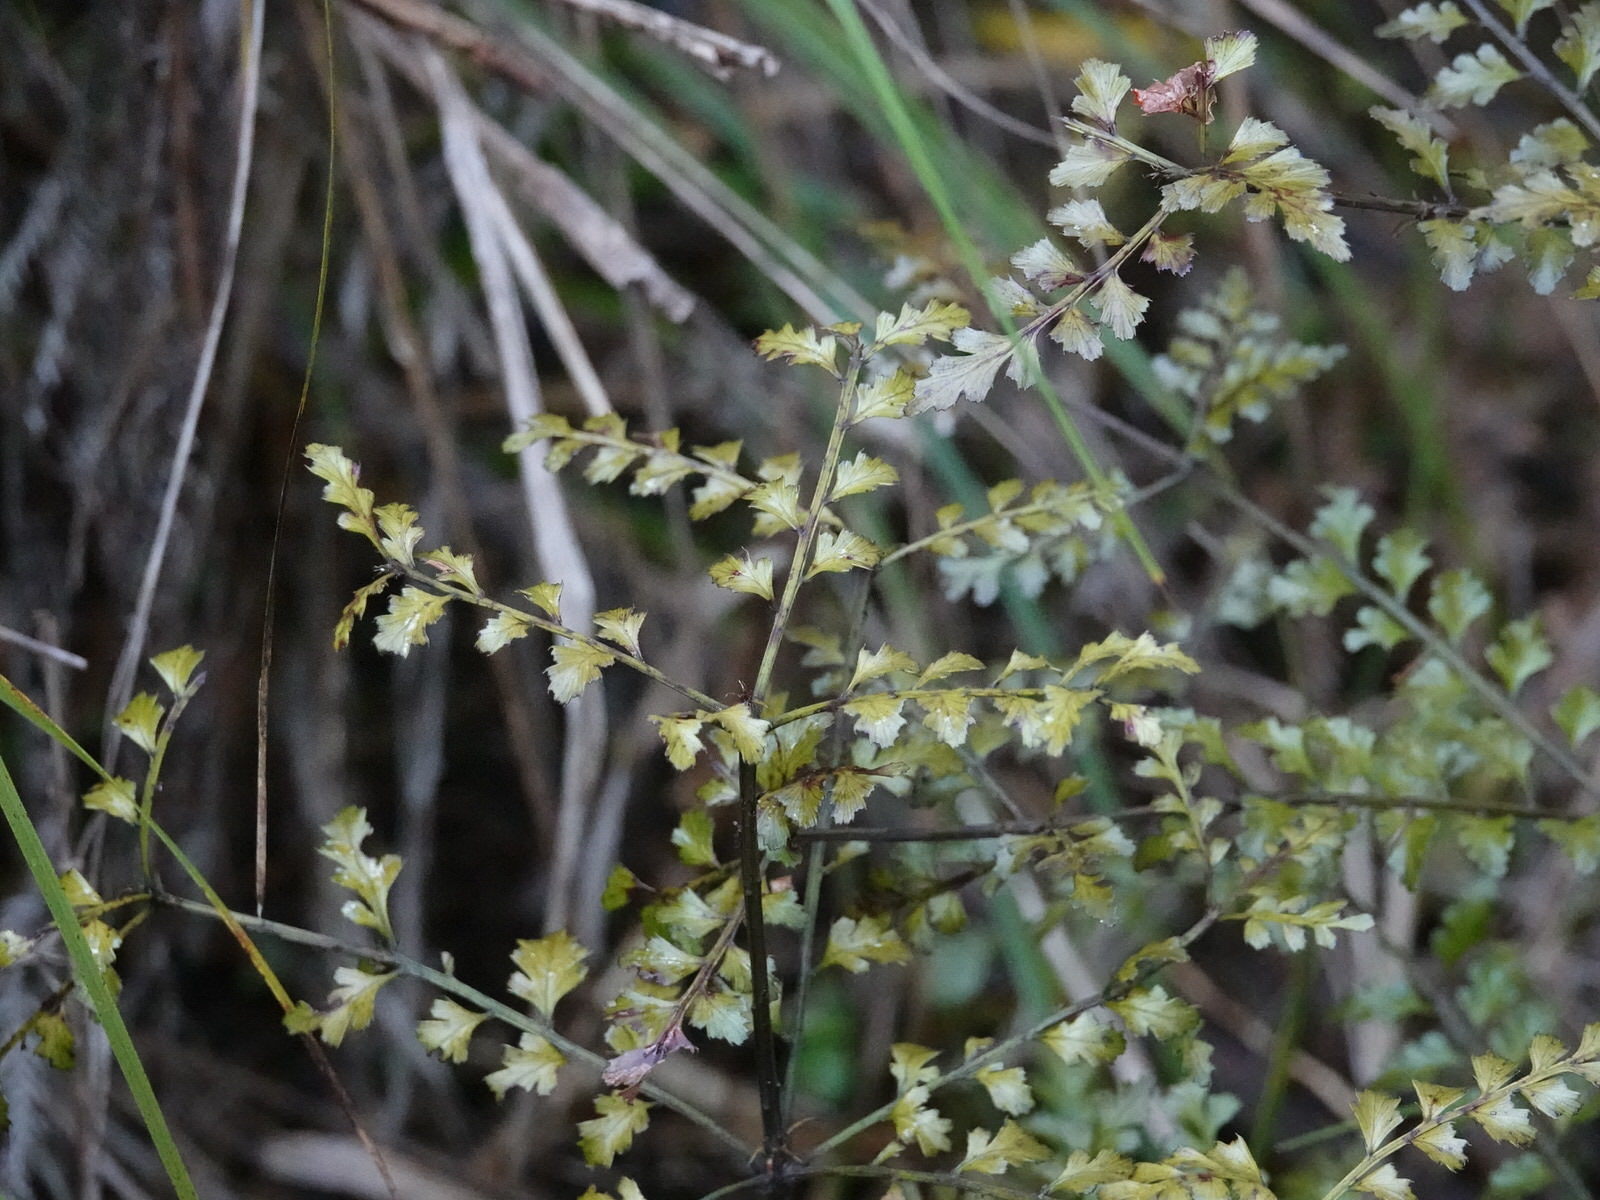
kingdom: Plantae
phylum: Tracheophyta
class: Pinopsida
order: Pinales
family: Phyllocladaceae
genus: Phyllocladus
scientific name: Phyllocladus trichomanoides
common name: Celery pine
